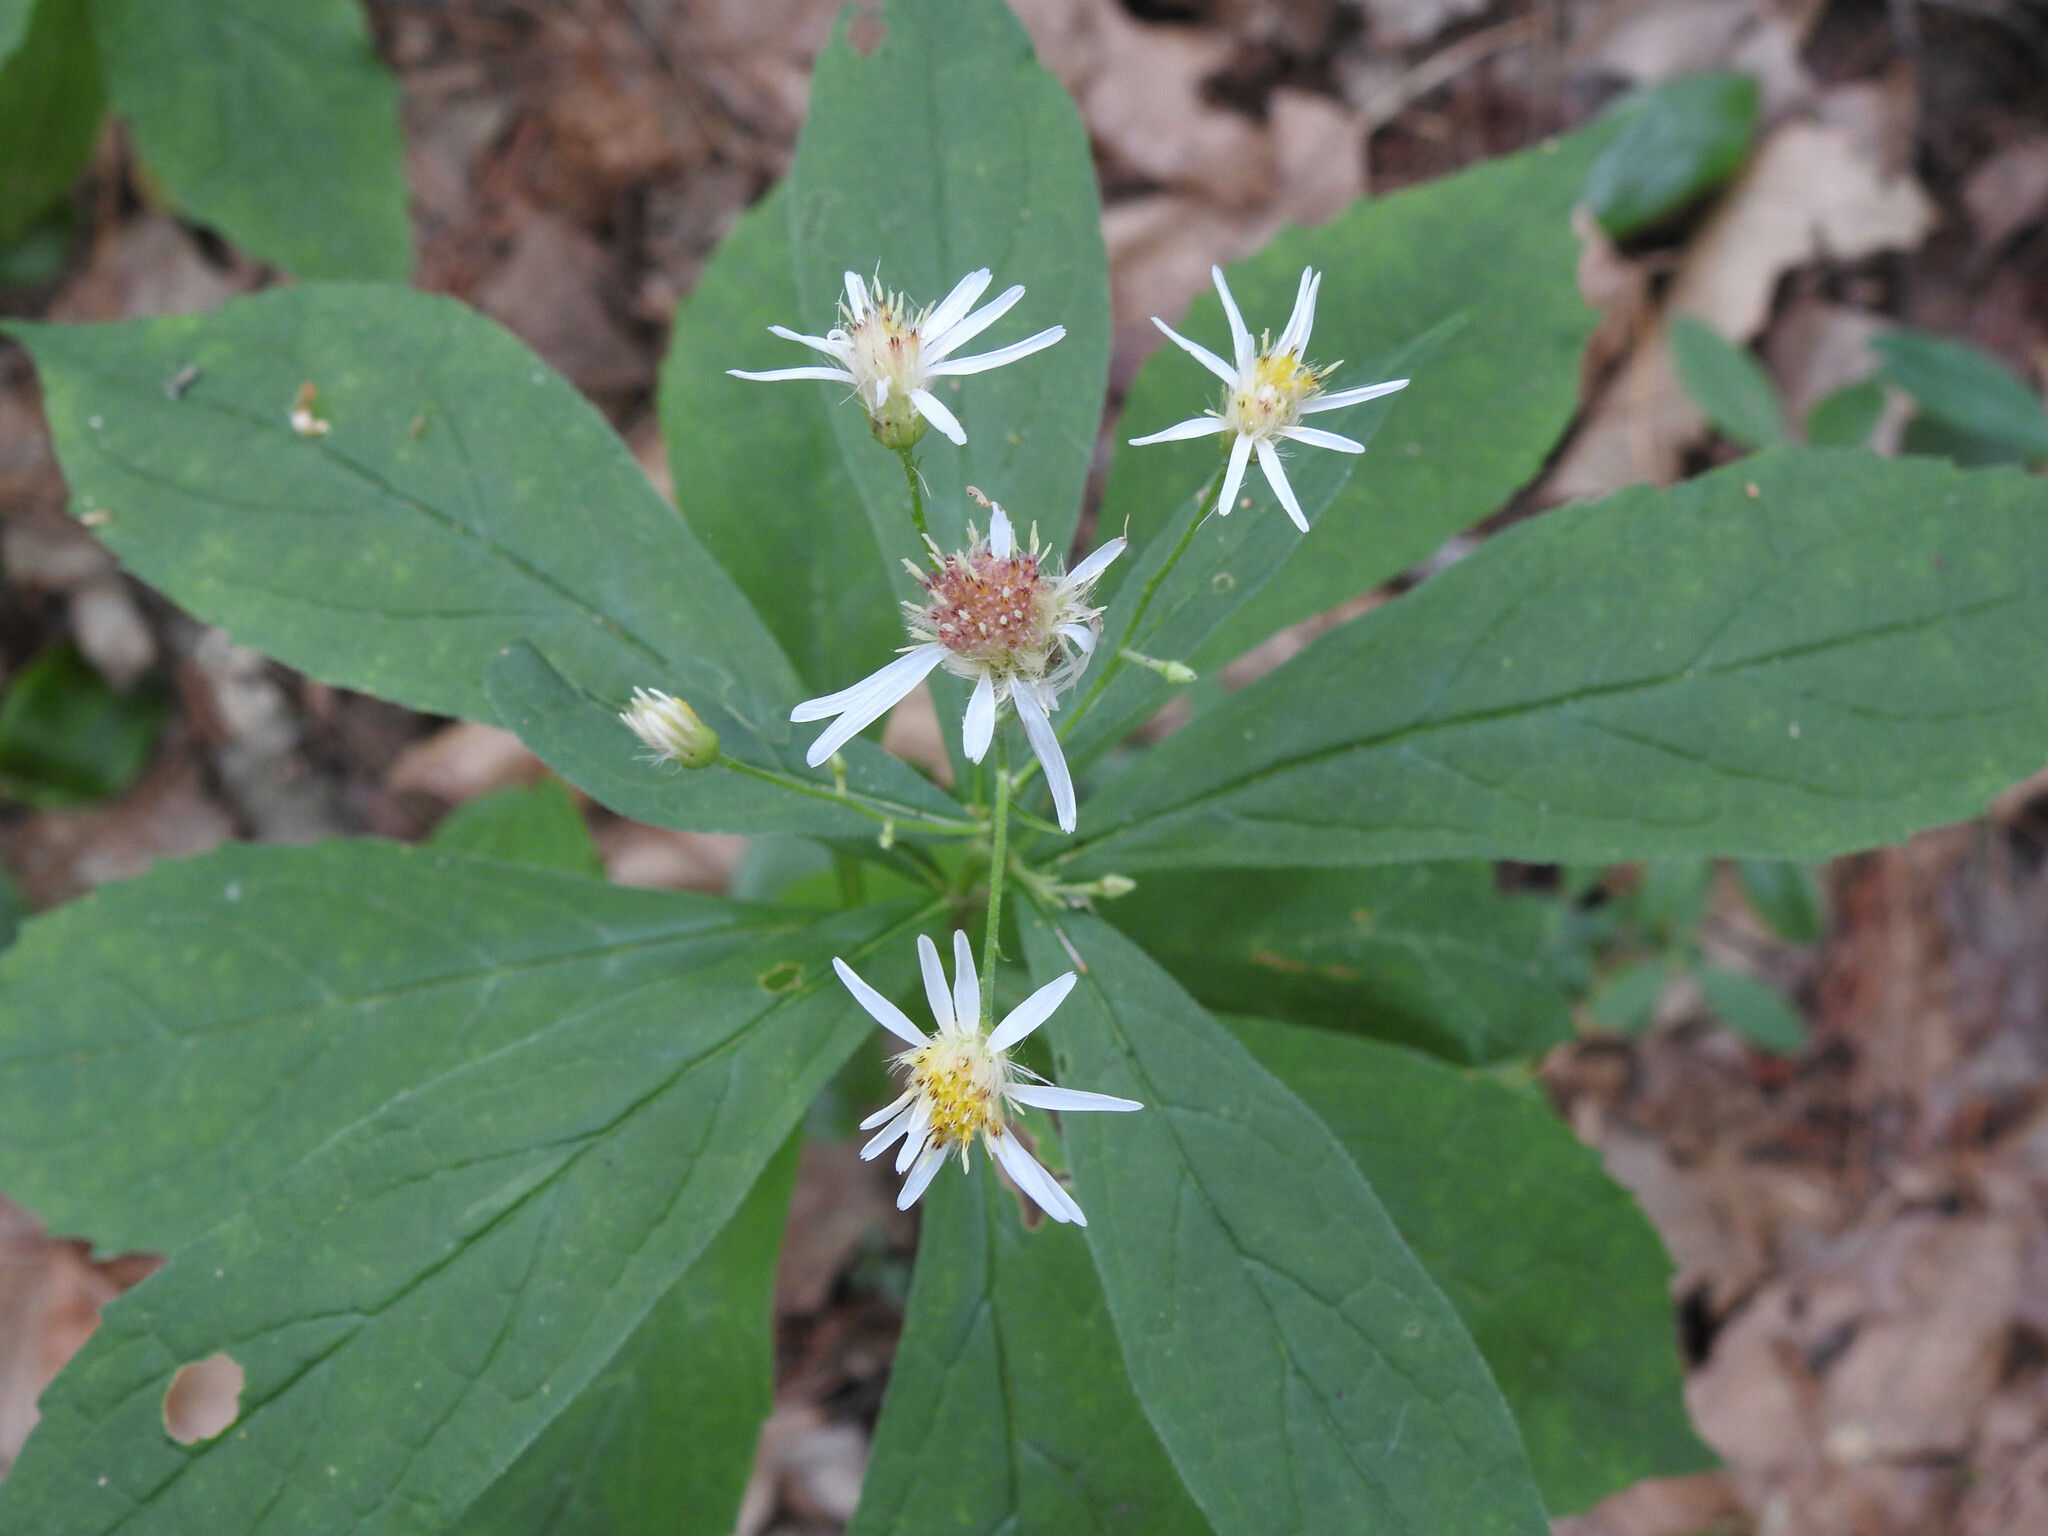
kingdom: Plantae
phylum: Tracheophyta
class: Magnoliopsida
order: Asterales
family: Asteraceae
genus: Oclemena
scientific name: Oclemena acuminata
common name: Mountain aster
